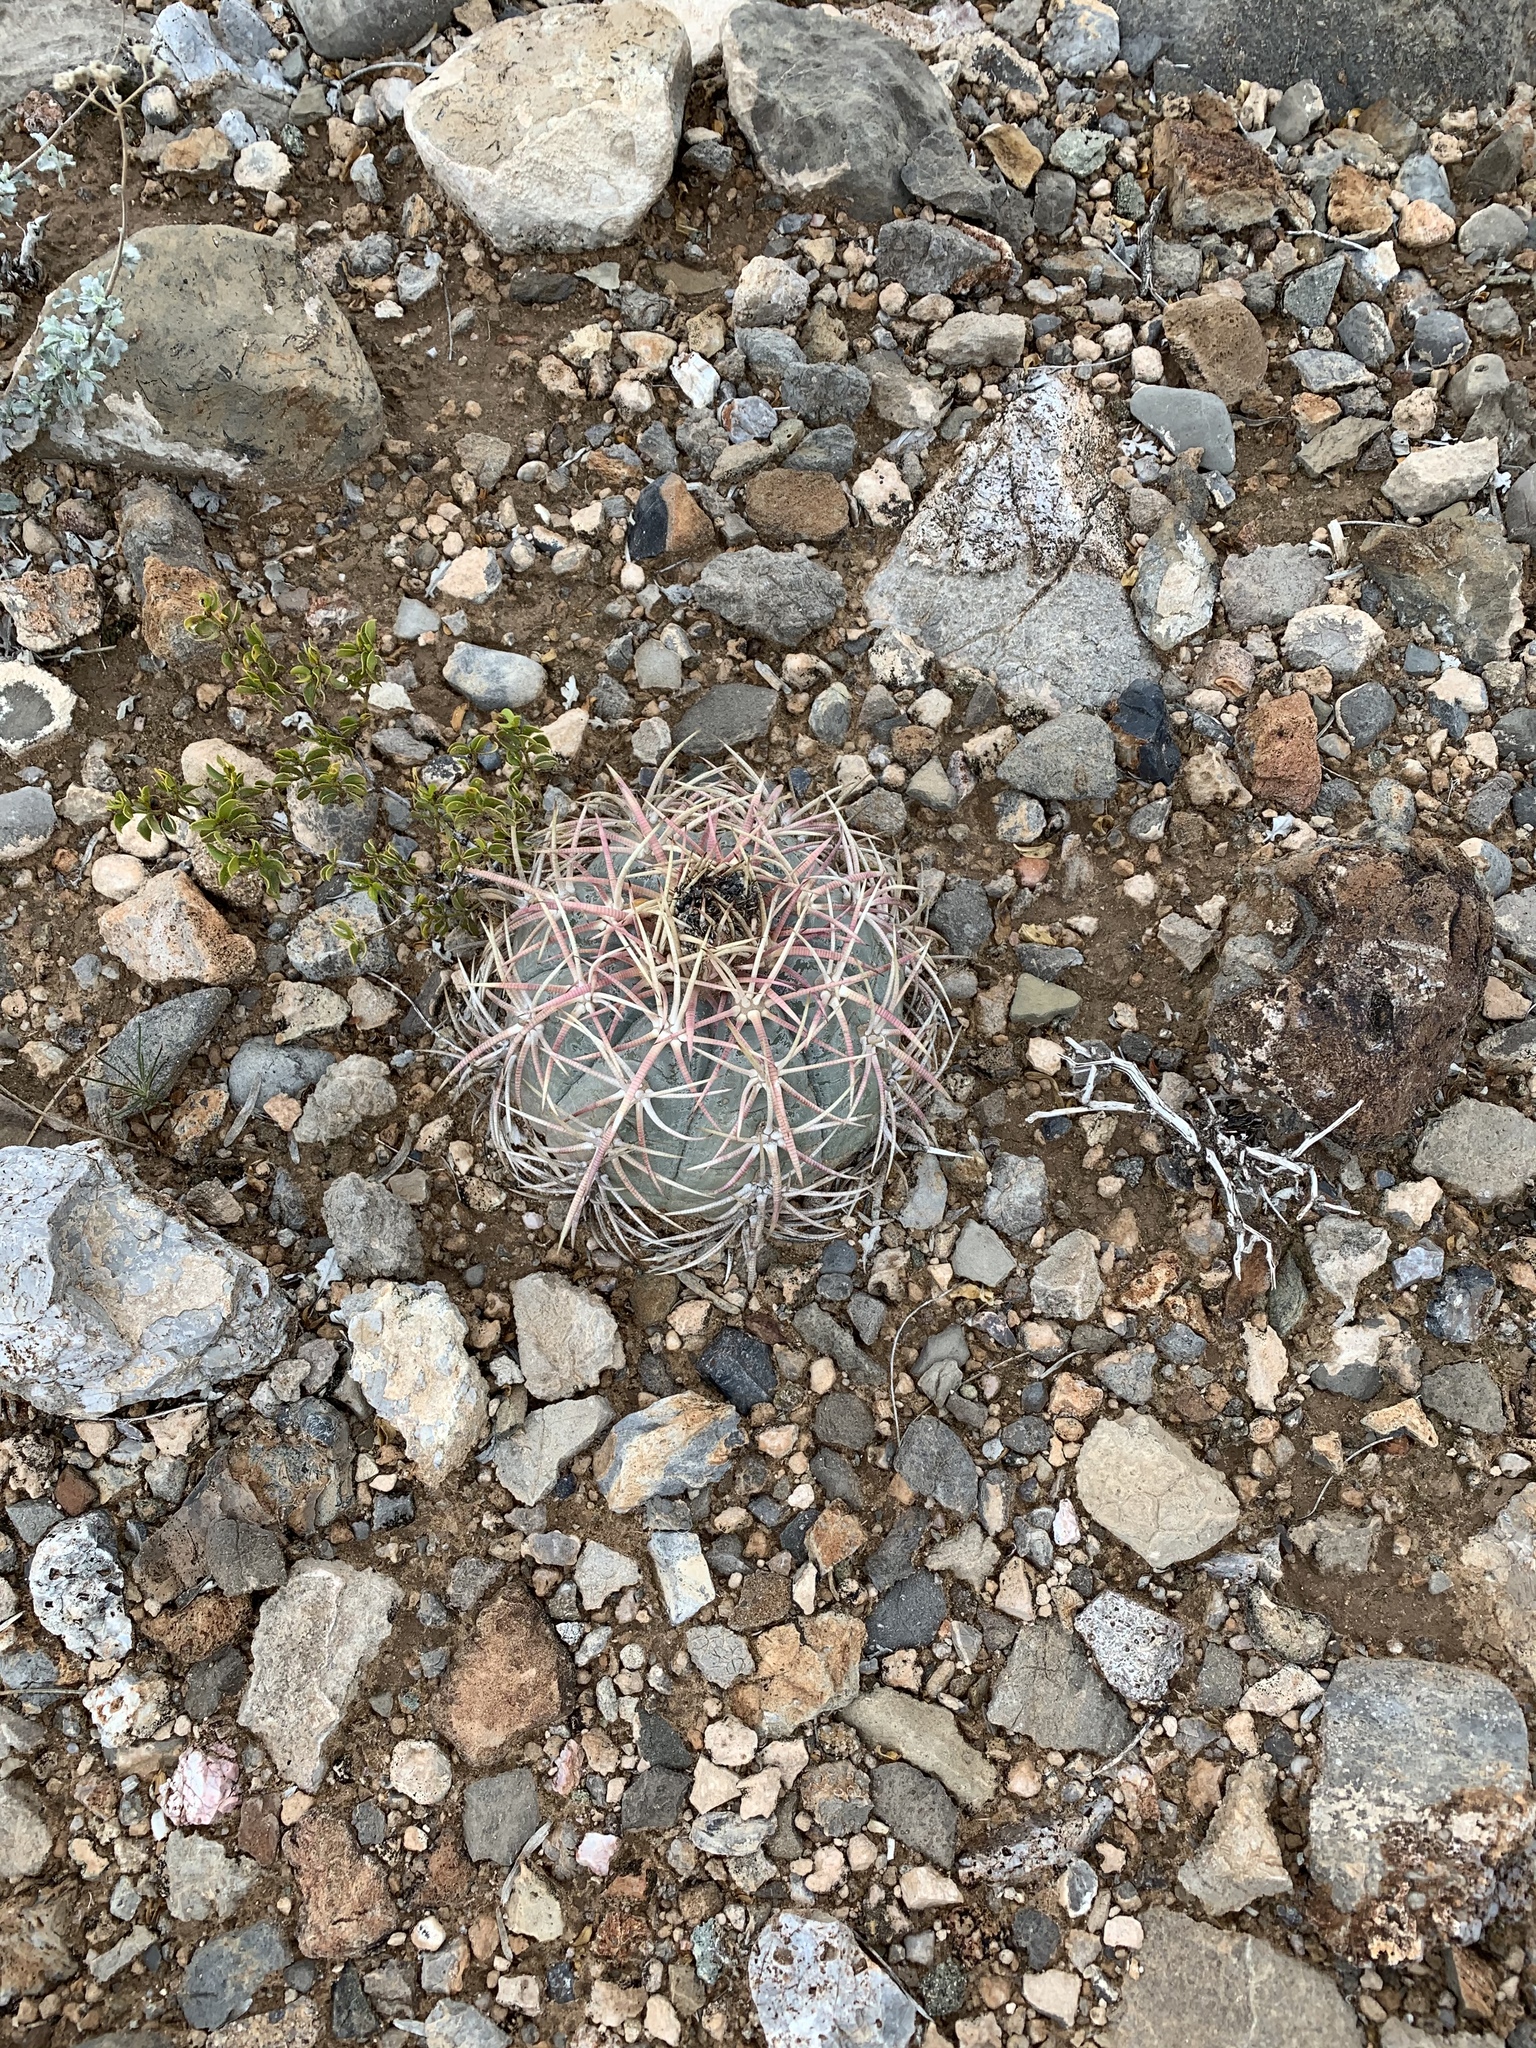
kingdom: Plantae
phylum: Tracheophyta
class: Magnoliopsida
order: Caryophyllales
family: Cactaceae
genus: Echinocactus
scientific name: Echinocactus horizonthalonius
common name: Devilshead
